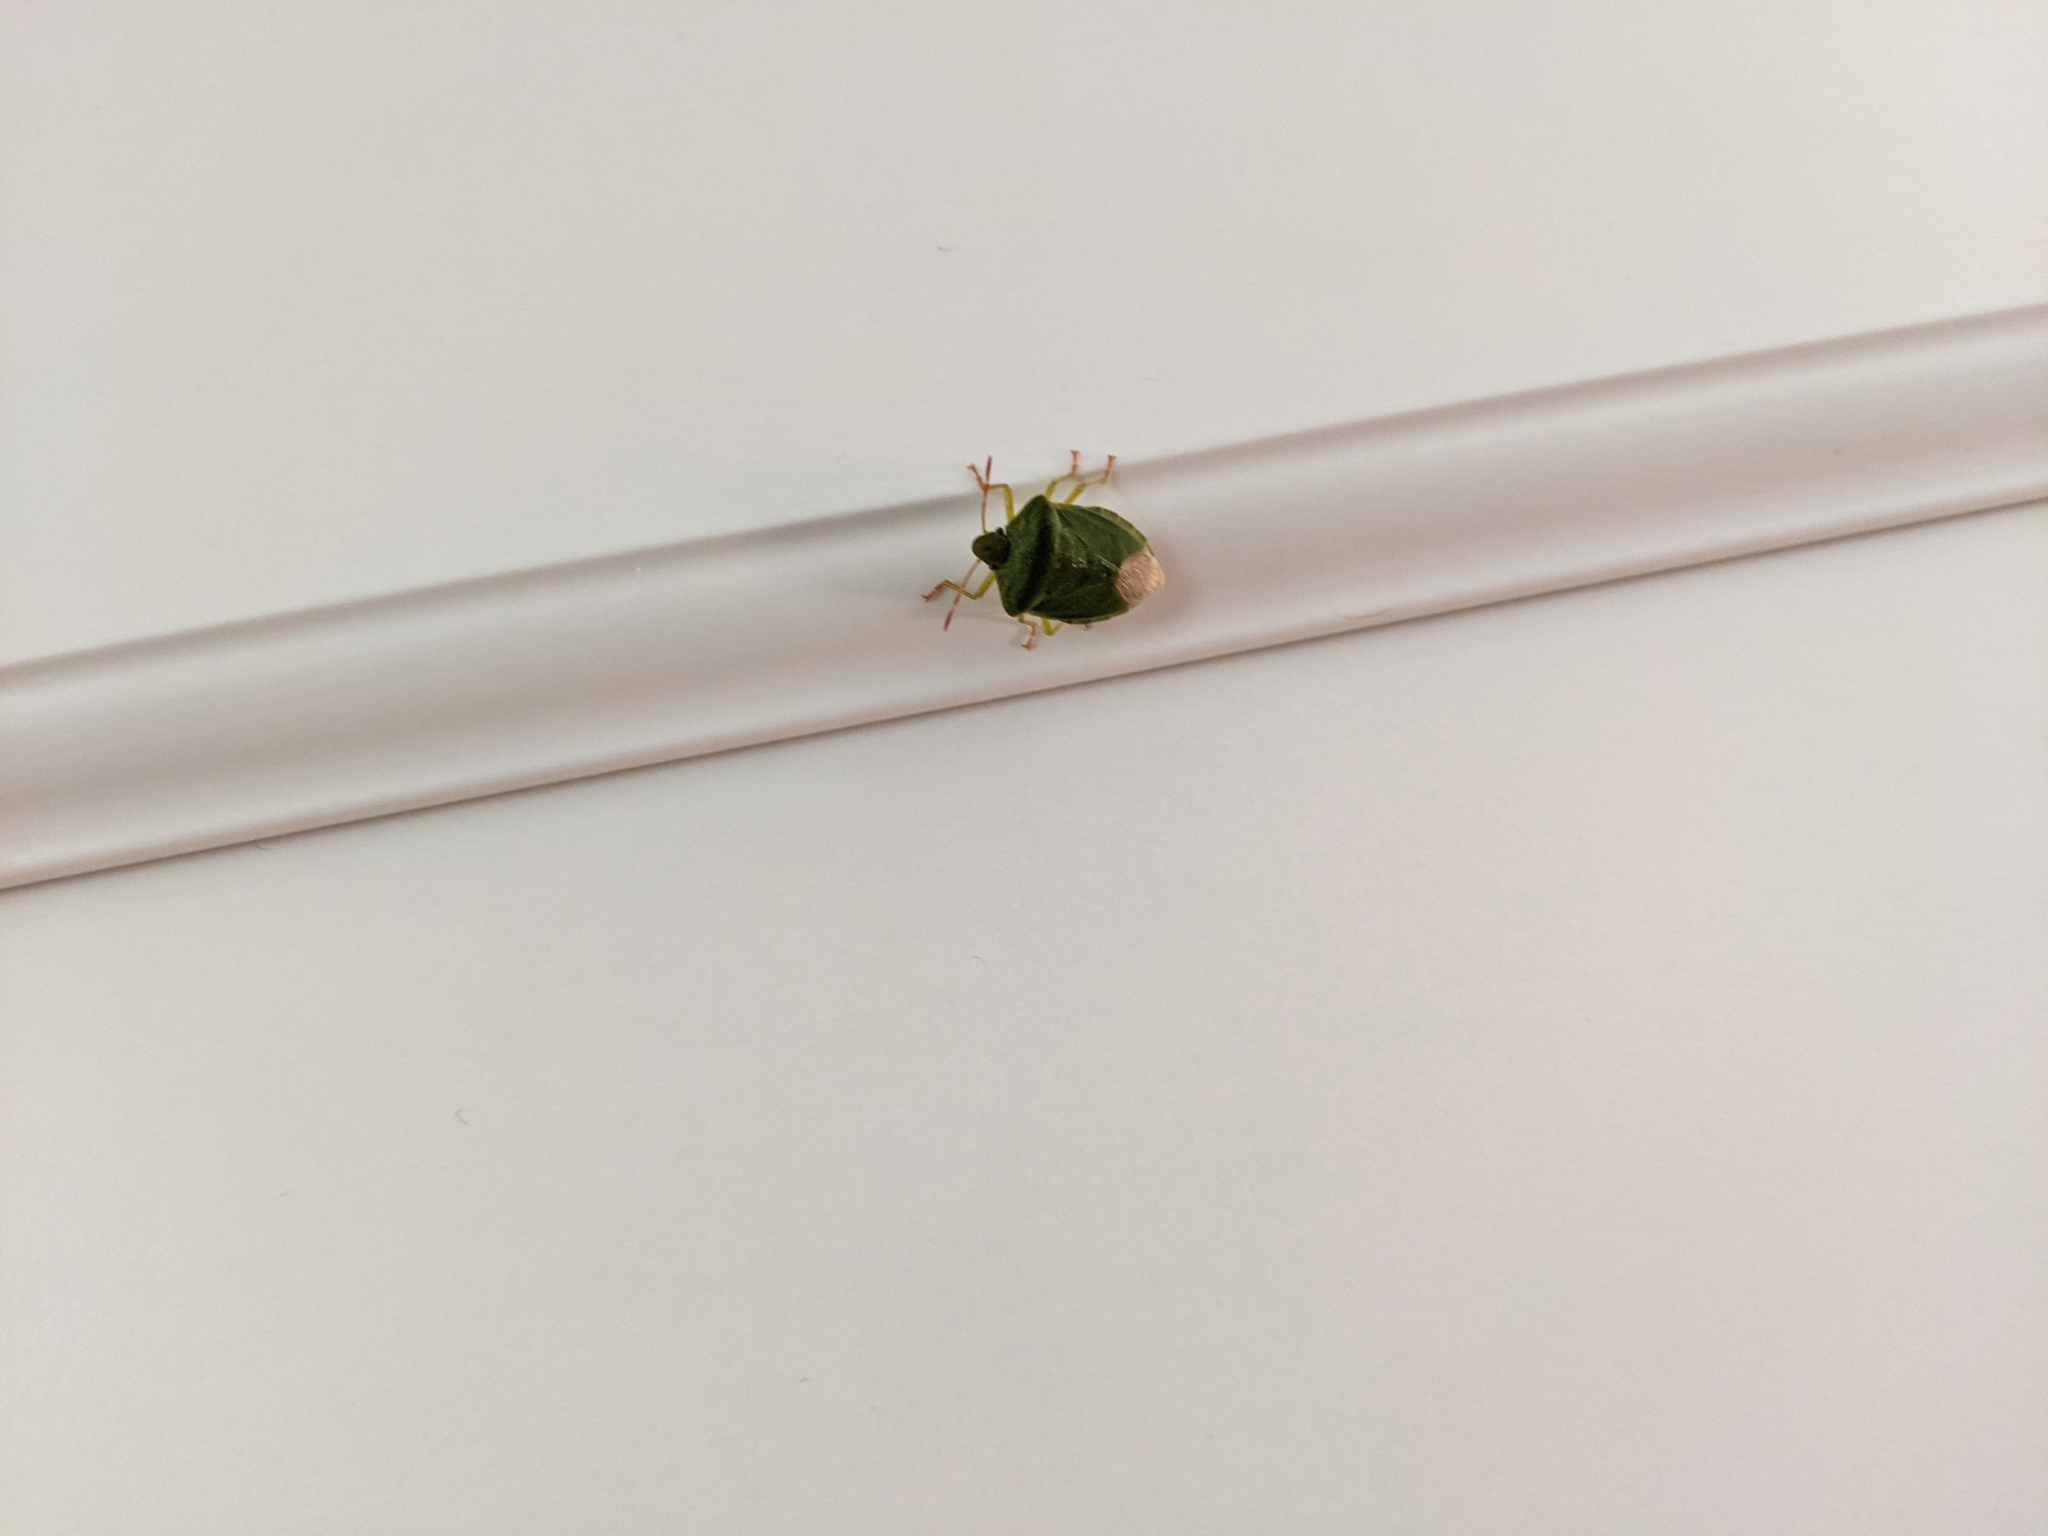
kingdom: Animalia
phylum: Arthropoda
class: Insecta
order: Hemiptera
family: Pentatomidae
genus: Palomena
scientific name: Palomena prasina
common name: Green shieldbug
